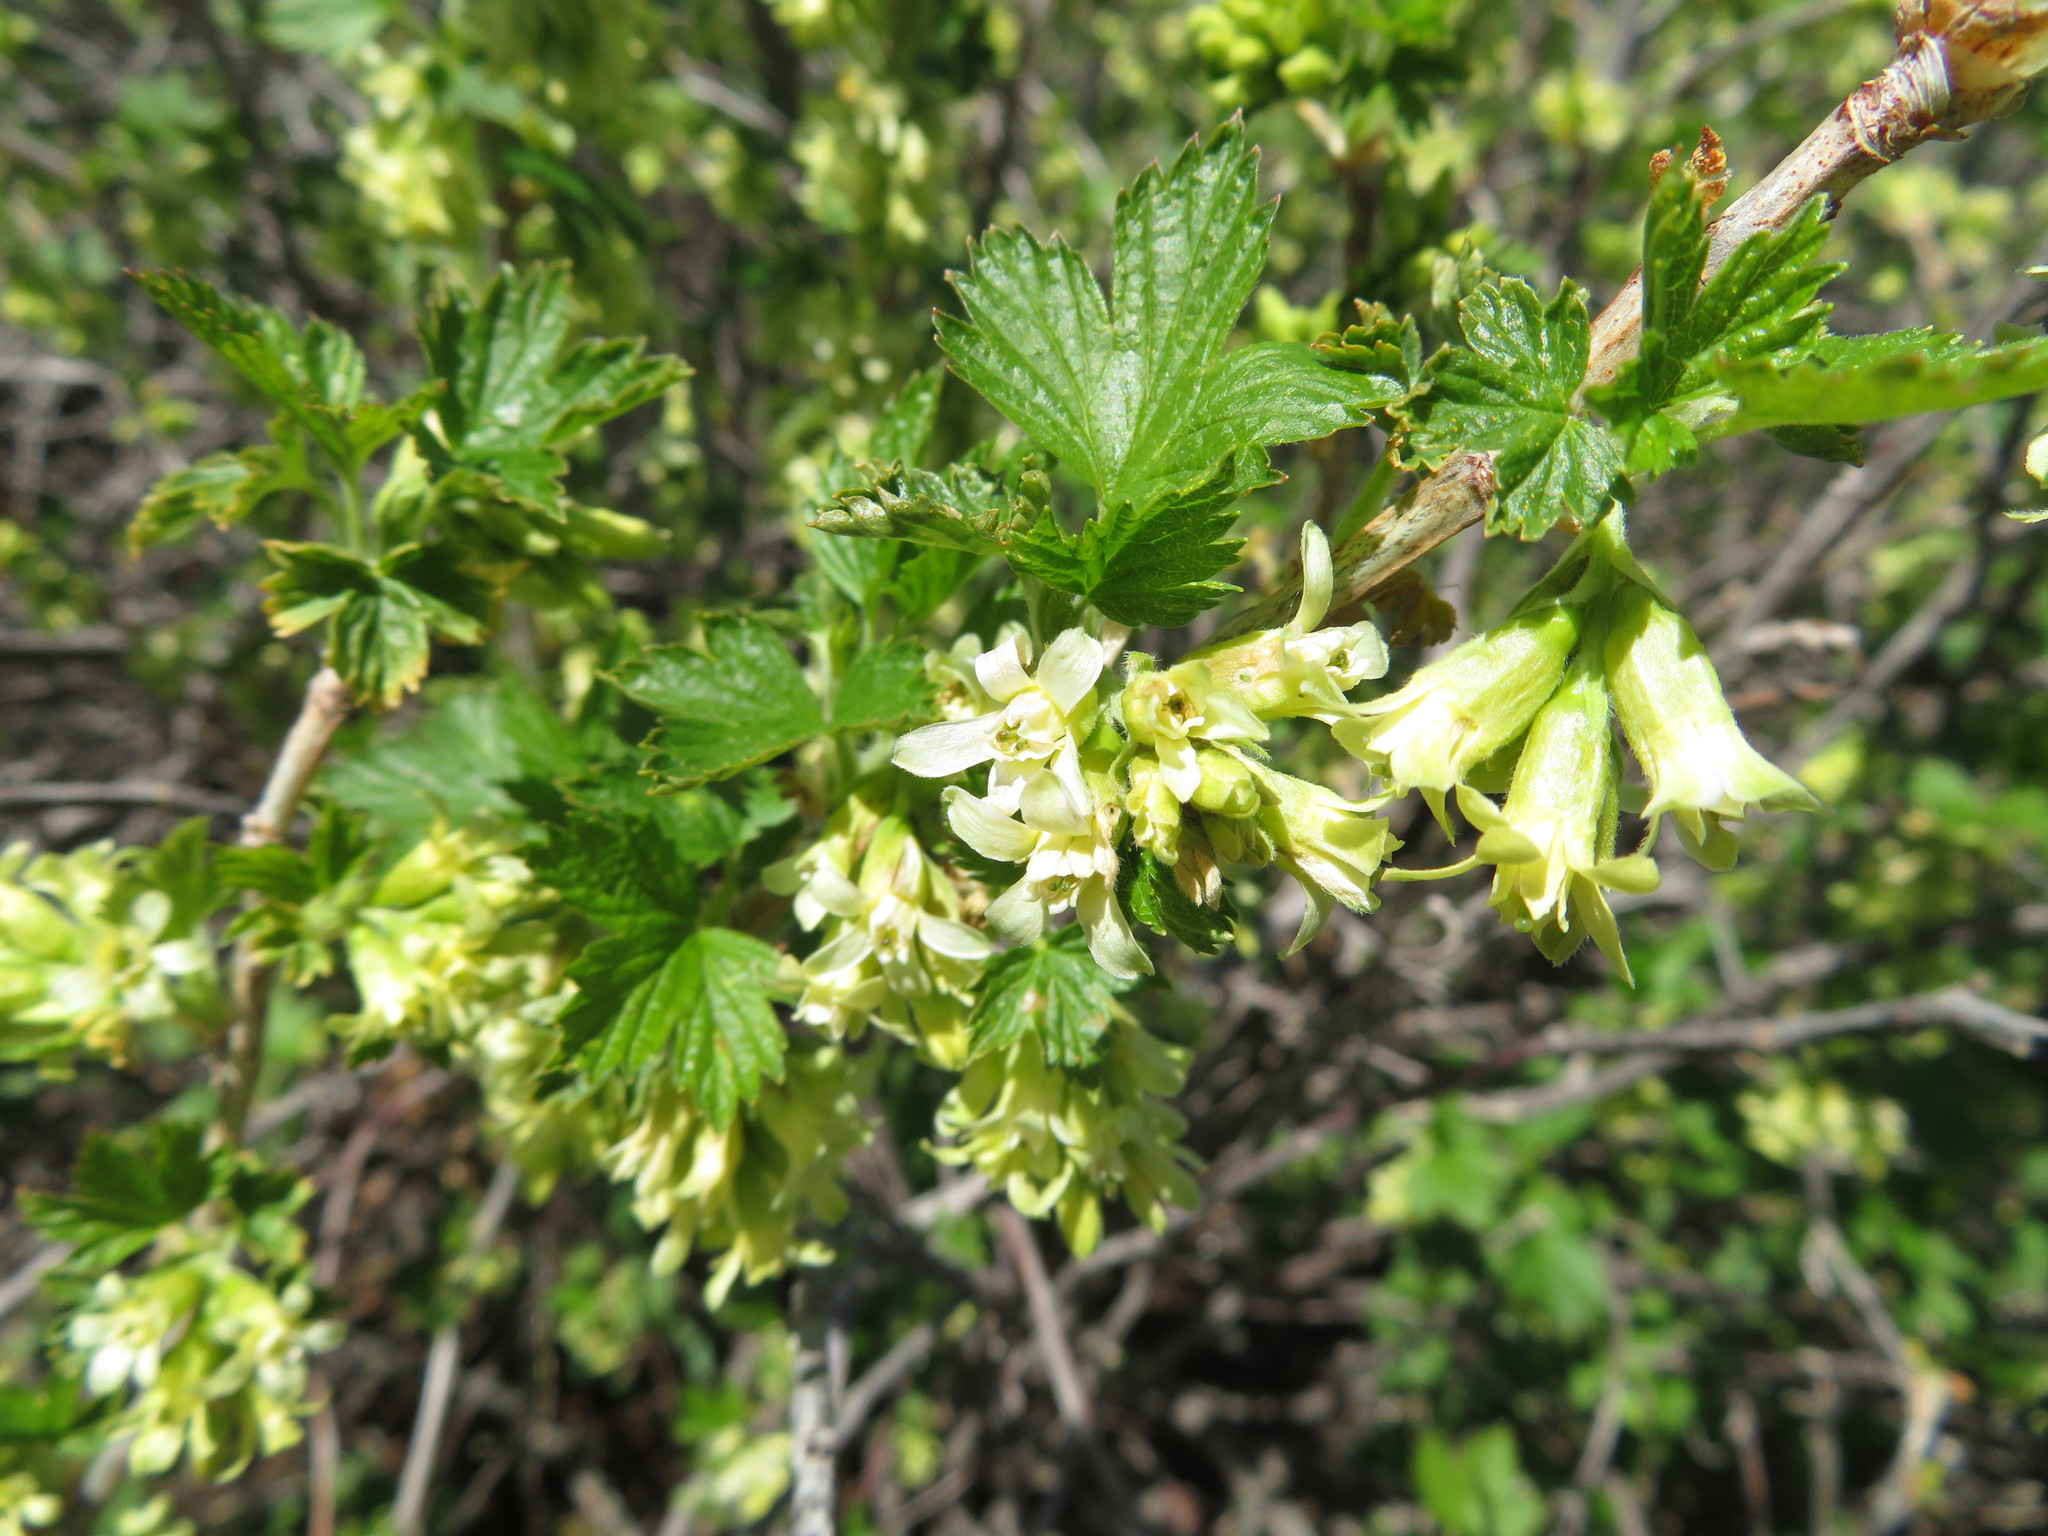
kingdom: Plantae
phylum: Tracheophyta
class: Magnoliopsida
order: Saxifragales
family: Grossulariaceae
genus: Ribes
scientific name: Ribes americanum
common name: American black currant
